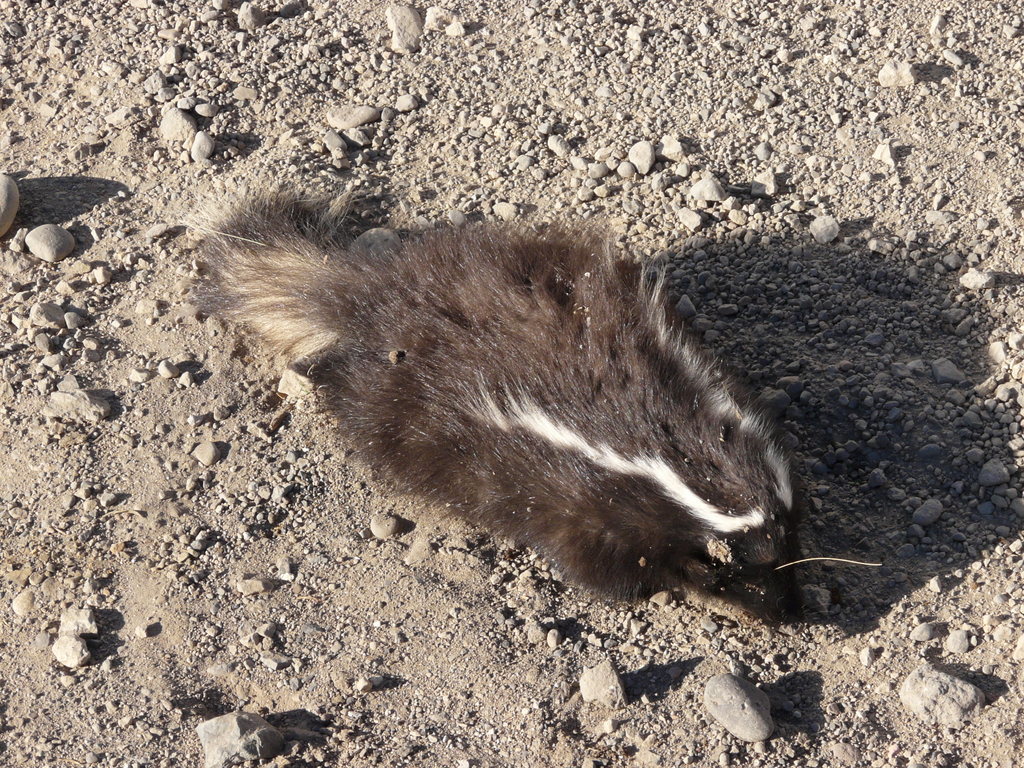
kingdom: Animalia
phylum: Chordata
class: Mammalia
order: Carnivora
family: Mephitidae
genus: Conepatus
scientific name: Conepatus chinga
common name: Molina's hog-nosed skunk
